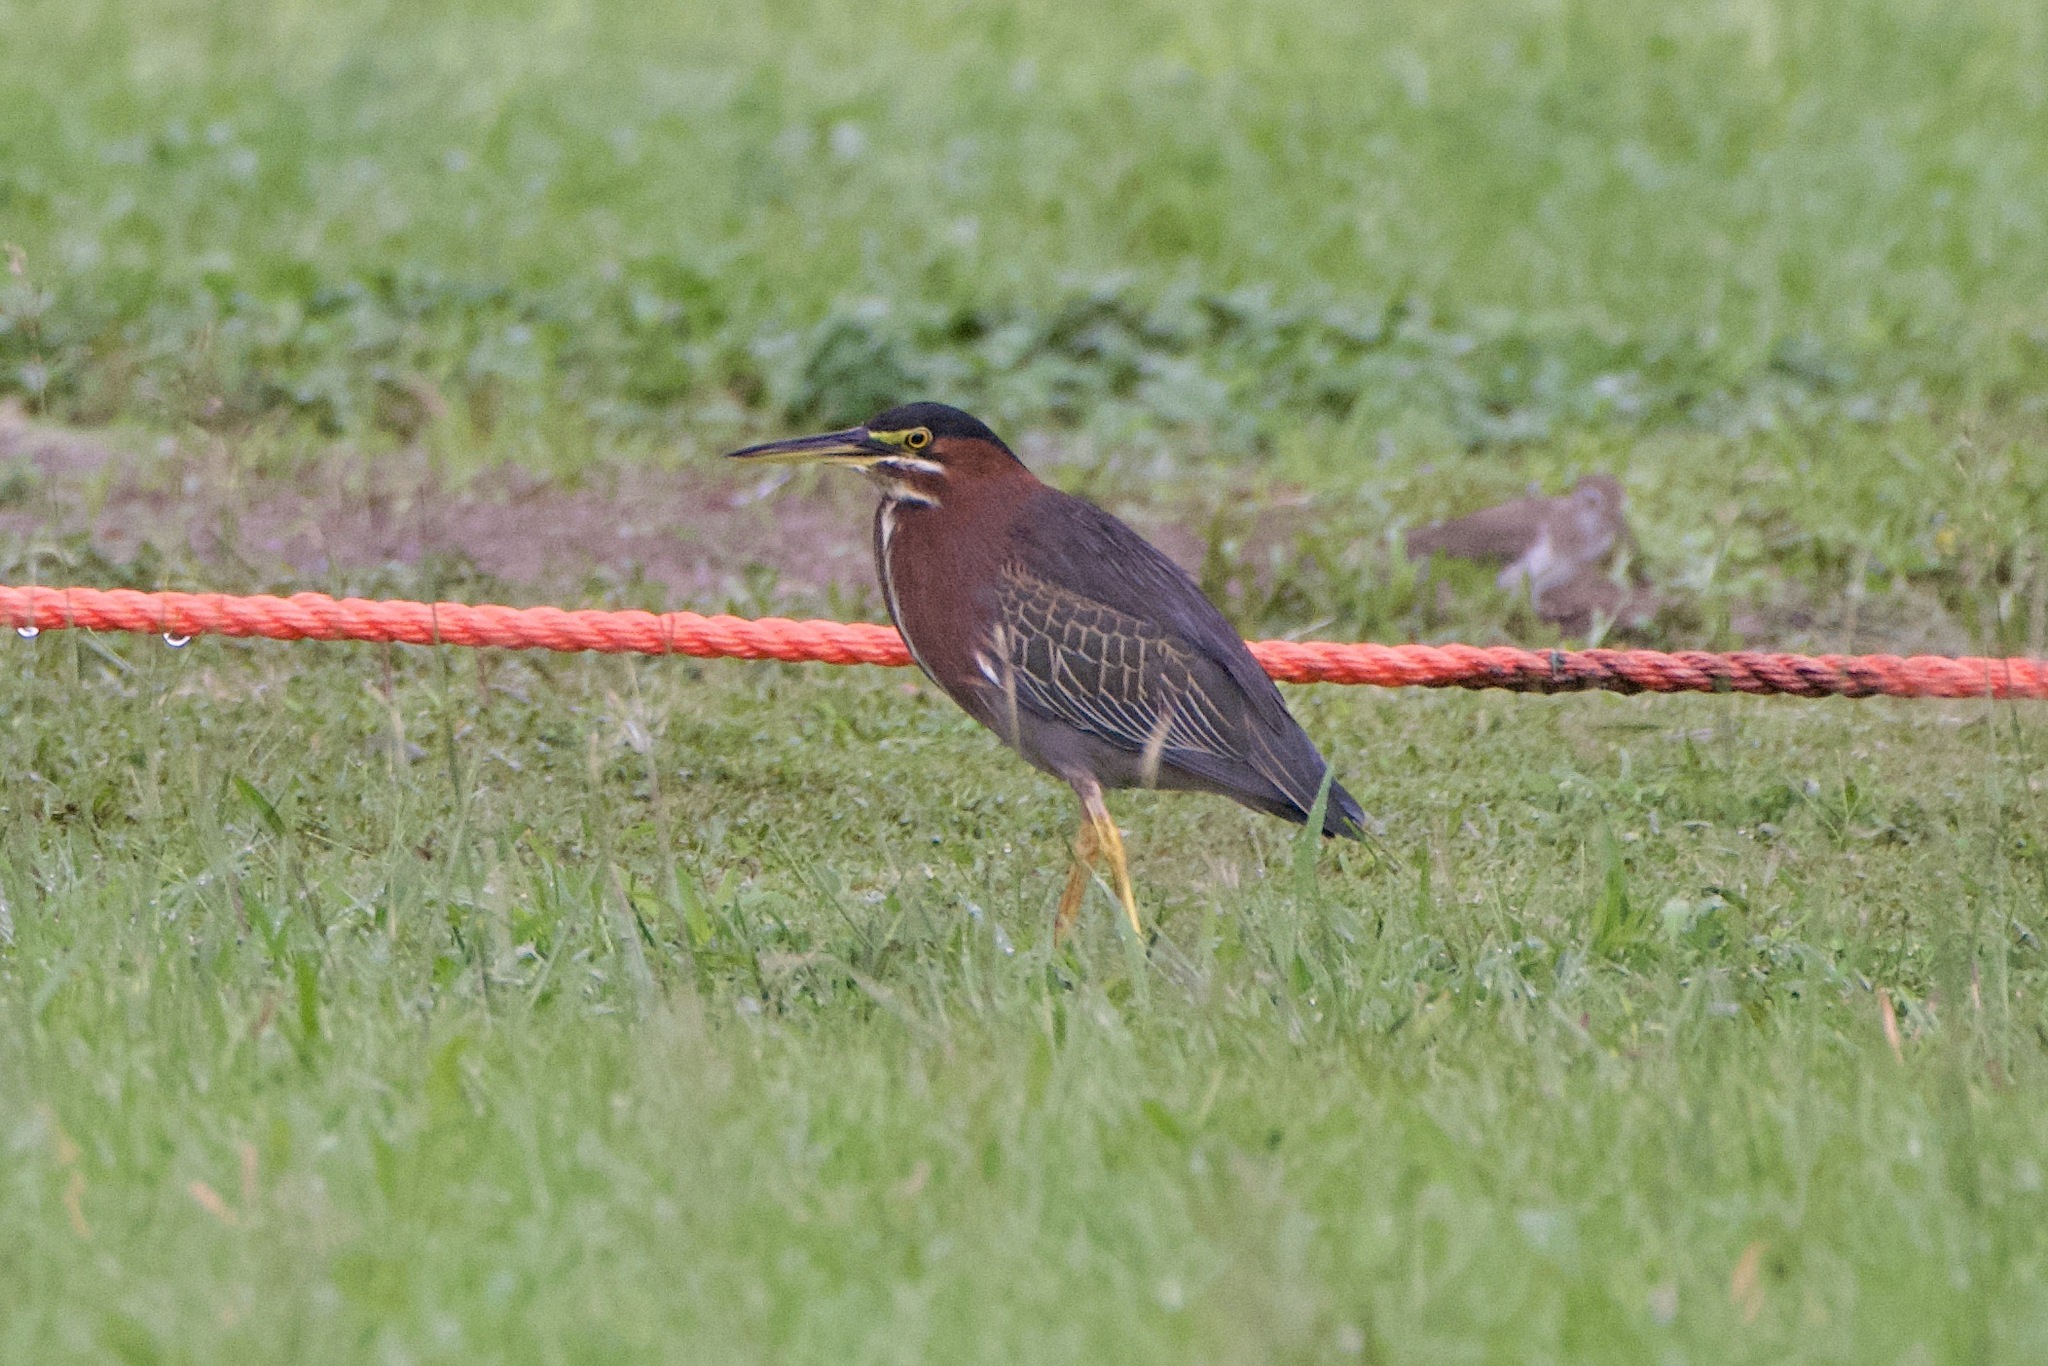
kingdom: Animalia
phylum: Chordata
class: Aves
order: Pelecaniformes
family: Ardeidae
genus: Butorides
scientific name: Butorides virescens
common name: Green heron
